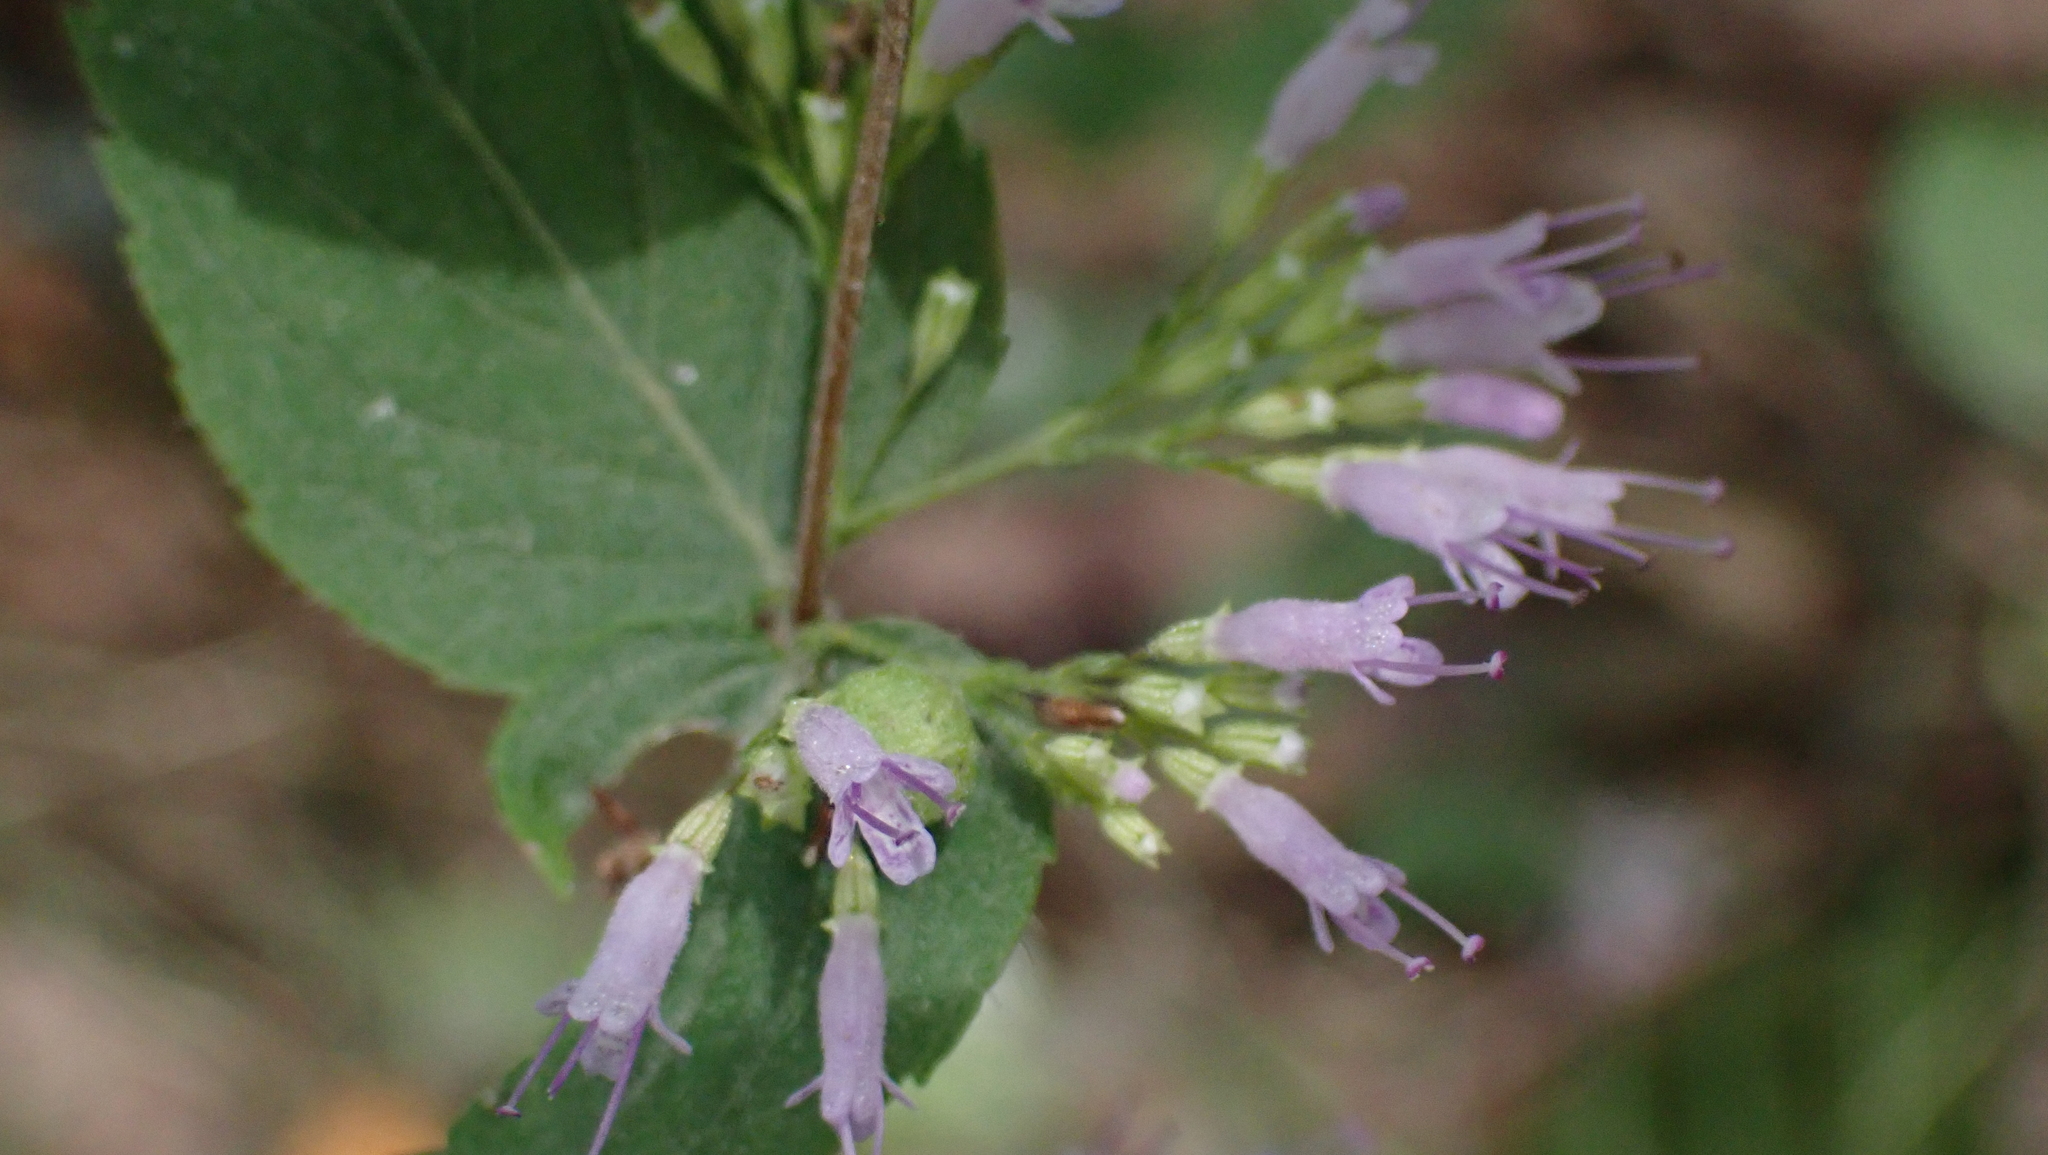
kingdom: Plantae
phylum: Tracheophyta
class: Magnoliopsida
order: Lamiales
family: Lamiaceae
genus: Cunila
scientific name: Cunila origanoides
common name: American dittany
